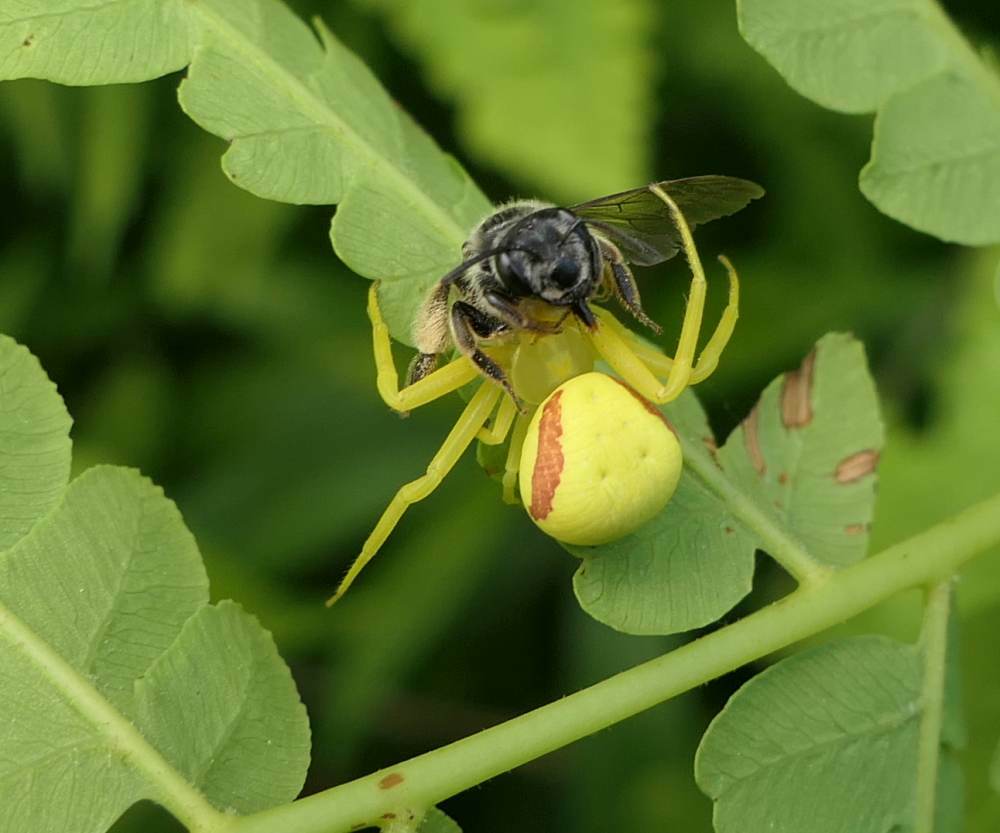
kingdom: Animalia
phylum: Arthropoda
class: Arachnida
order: Araneae
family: Thomisidae
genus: Misumena
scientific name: Misumena vatia
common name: Goldenrod crab spider
